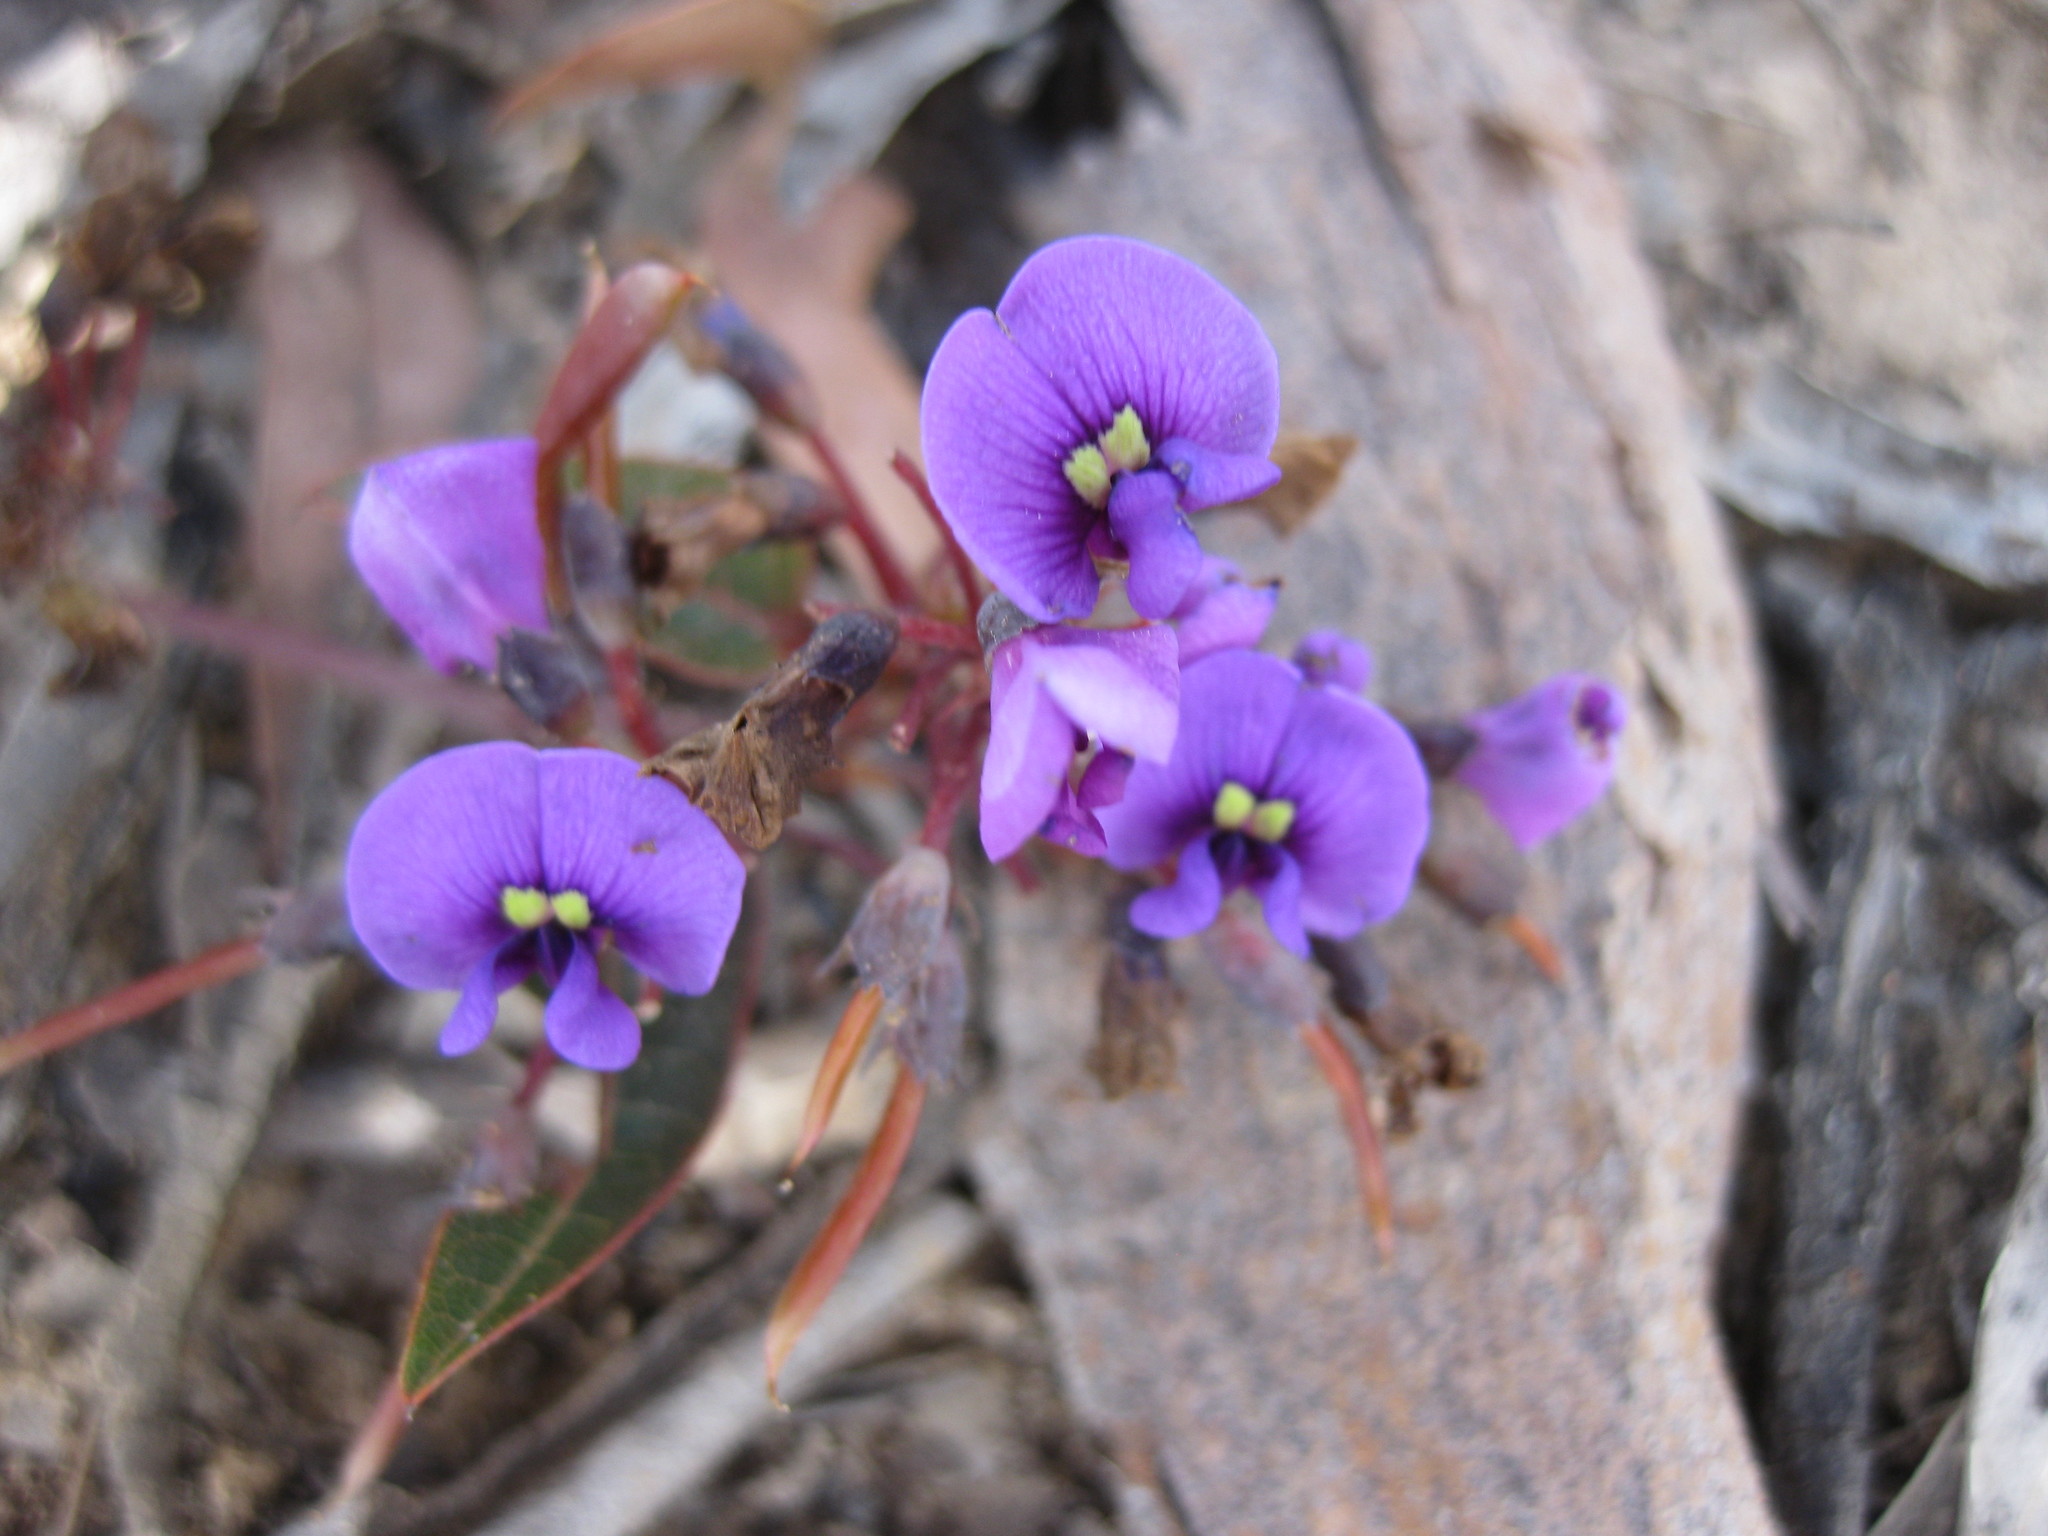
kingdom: Plantae
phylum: Tracheophyta
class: Magnoliopsida
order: Fabales
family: Fabaceae
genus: Hardenbergia
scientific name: Hardenbergia violacea
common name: Coral-pea
